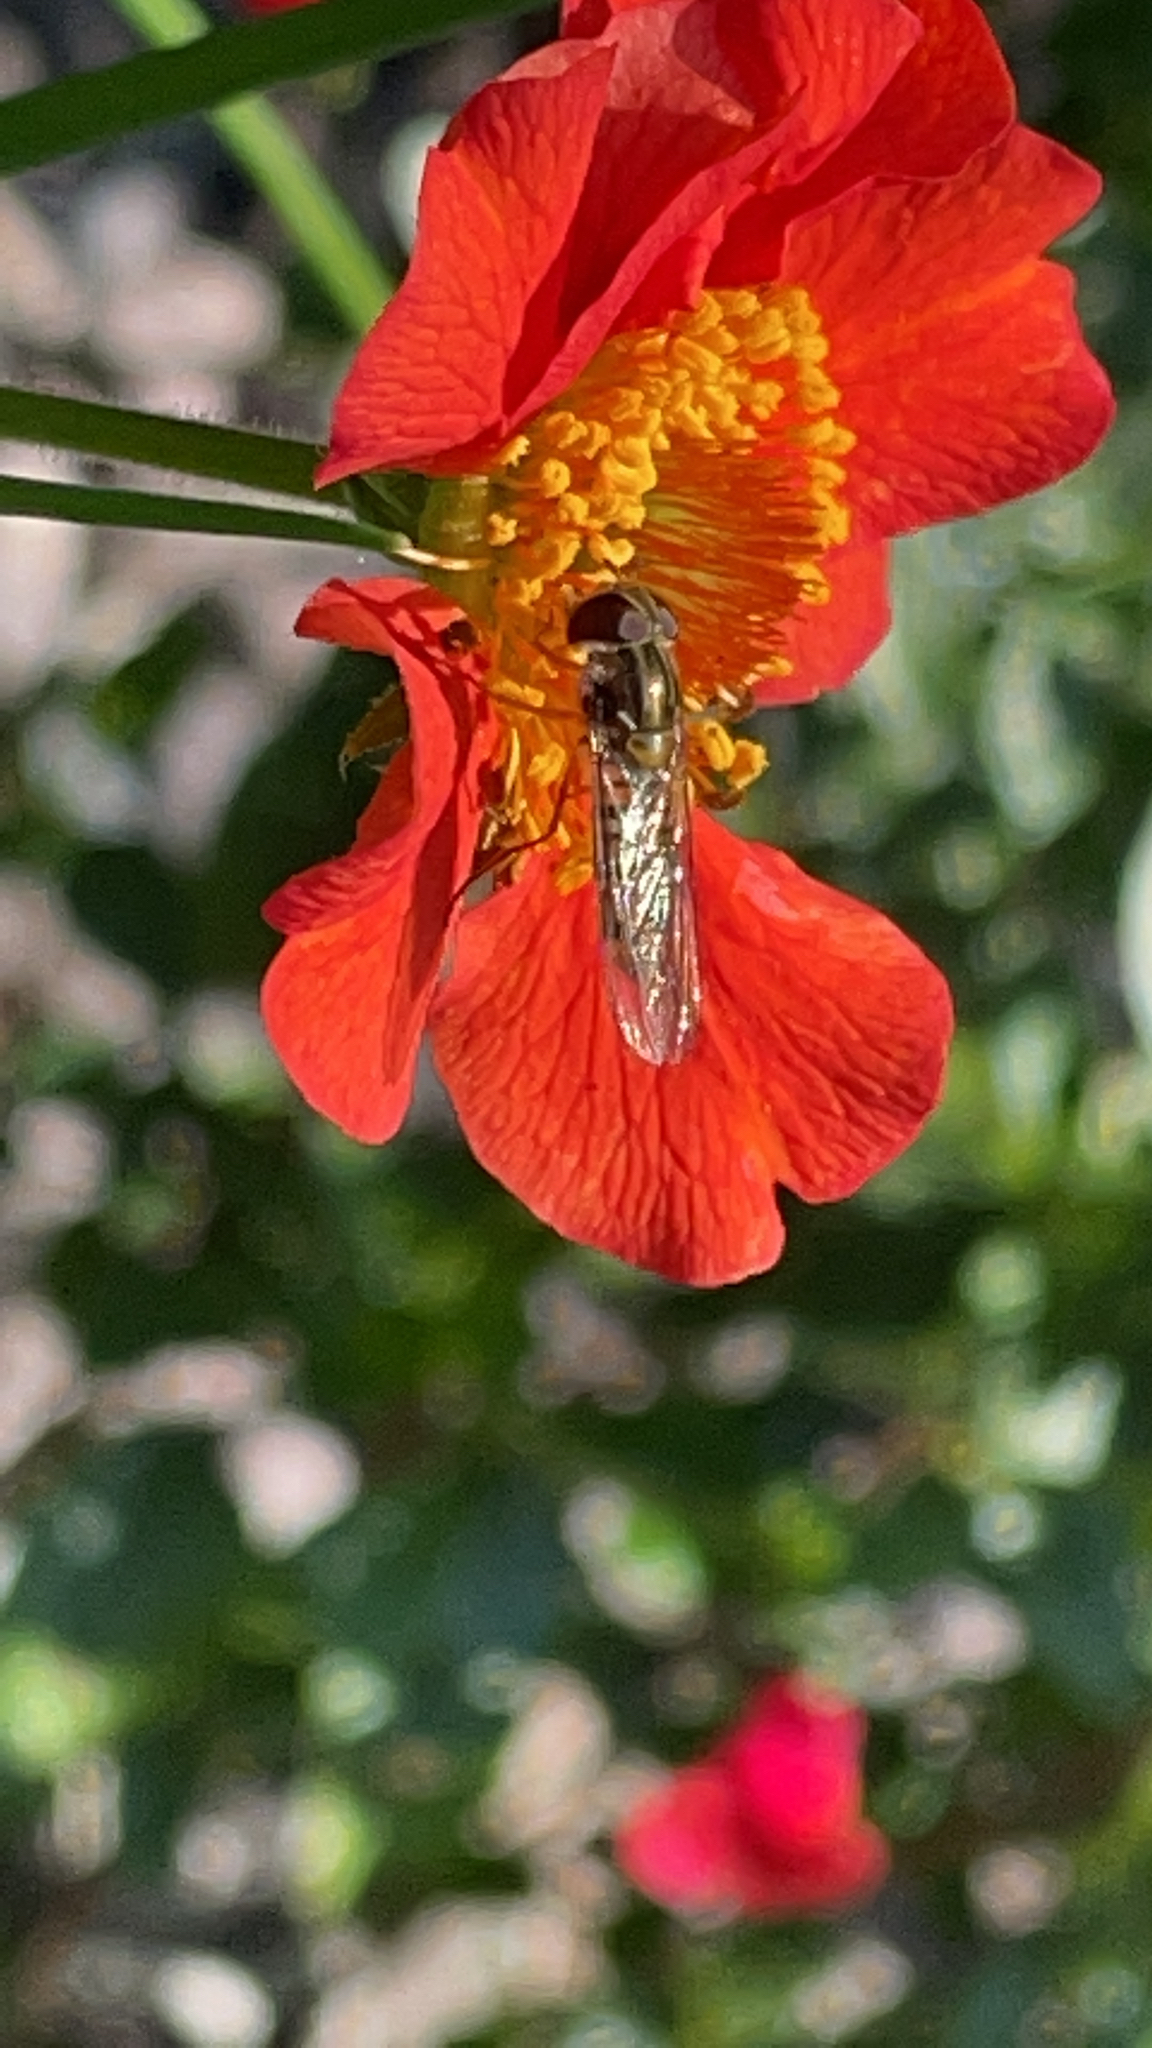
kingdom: Animalia
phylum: Arthropoda
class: Insecta
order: Diptera
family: Syrphidae
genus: Episyrphus
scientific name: Episyrphus balteatus
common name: Marmalade hoverfly
